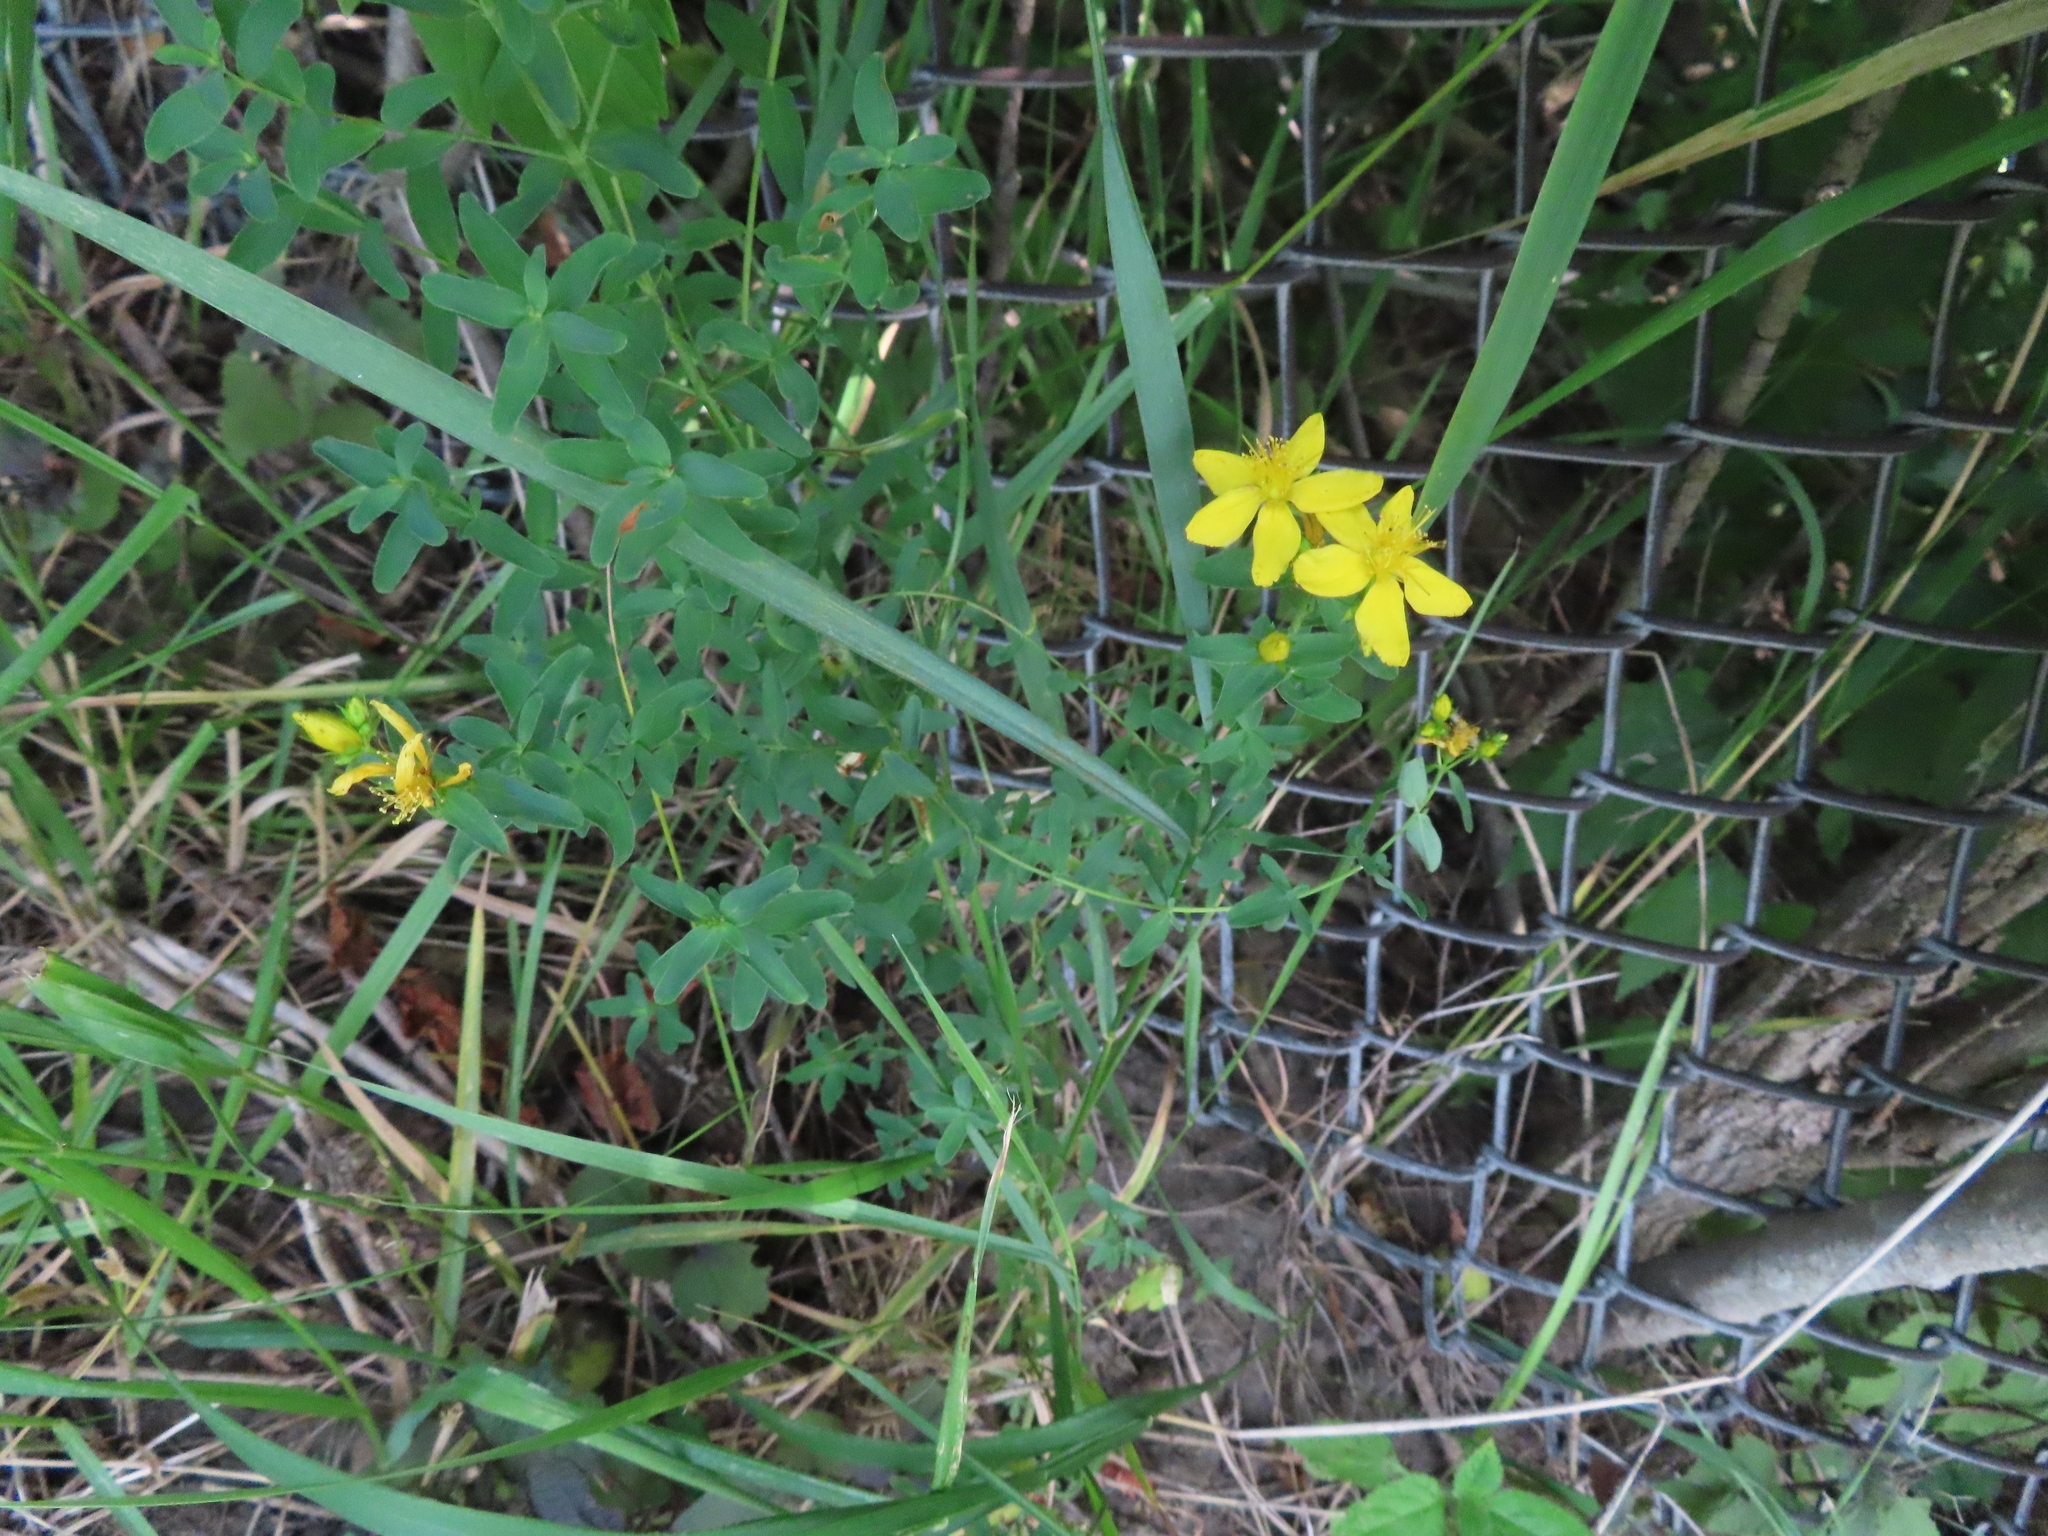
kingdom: Plantae
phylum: Tracheophyta
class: Magnoliopsida
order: Malpighiales
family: Hypericaceae
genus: Hypericum
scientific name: Hypericum perforatum
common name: Common st. johnswort
